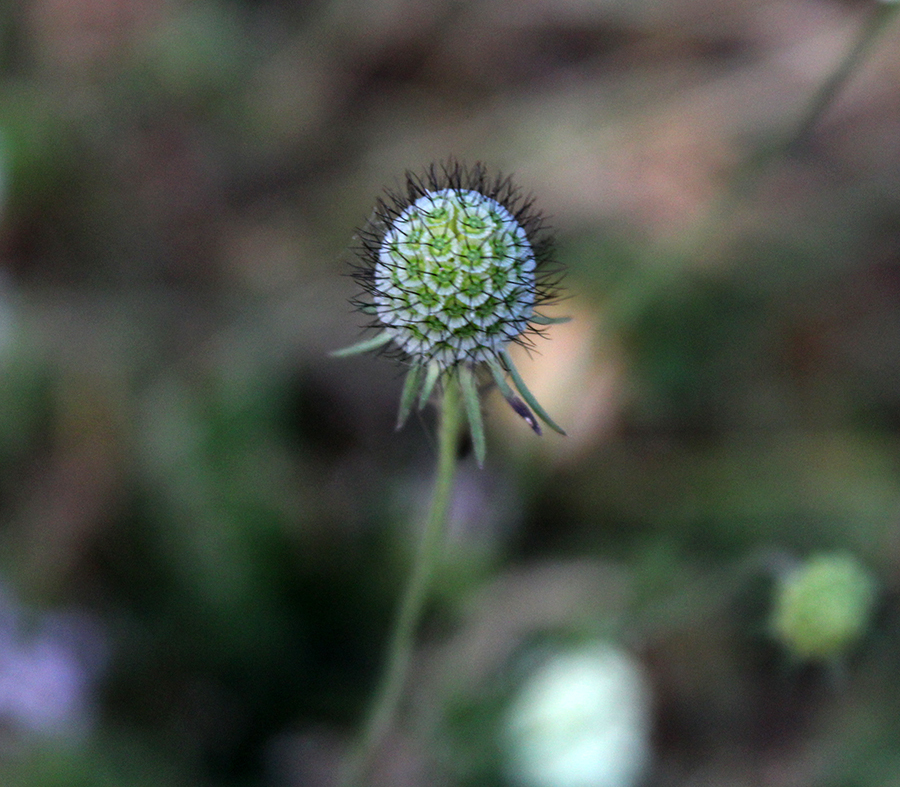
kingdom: Plantae
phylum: Tracheophyta
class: Magnoliopsida
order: Dipsacales
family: Caprifoliaceae
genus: Scabiosa
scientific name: Scabiosa bipinnata
